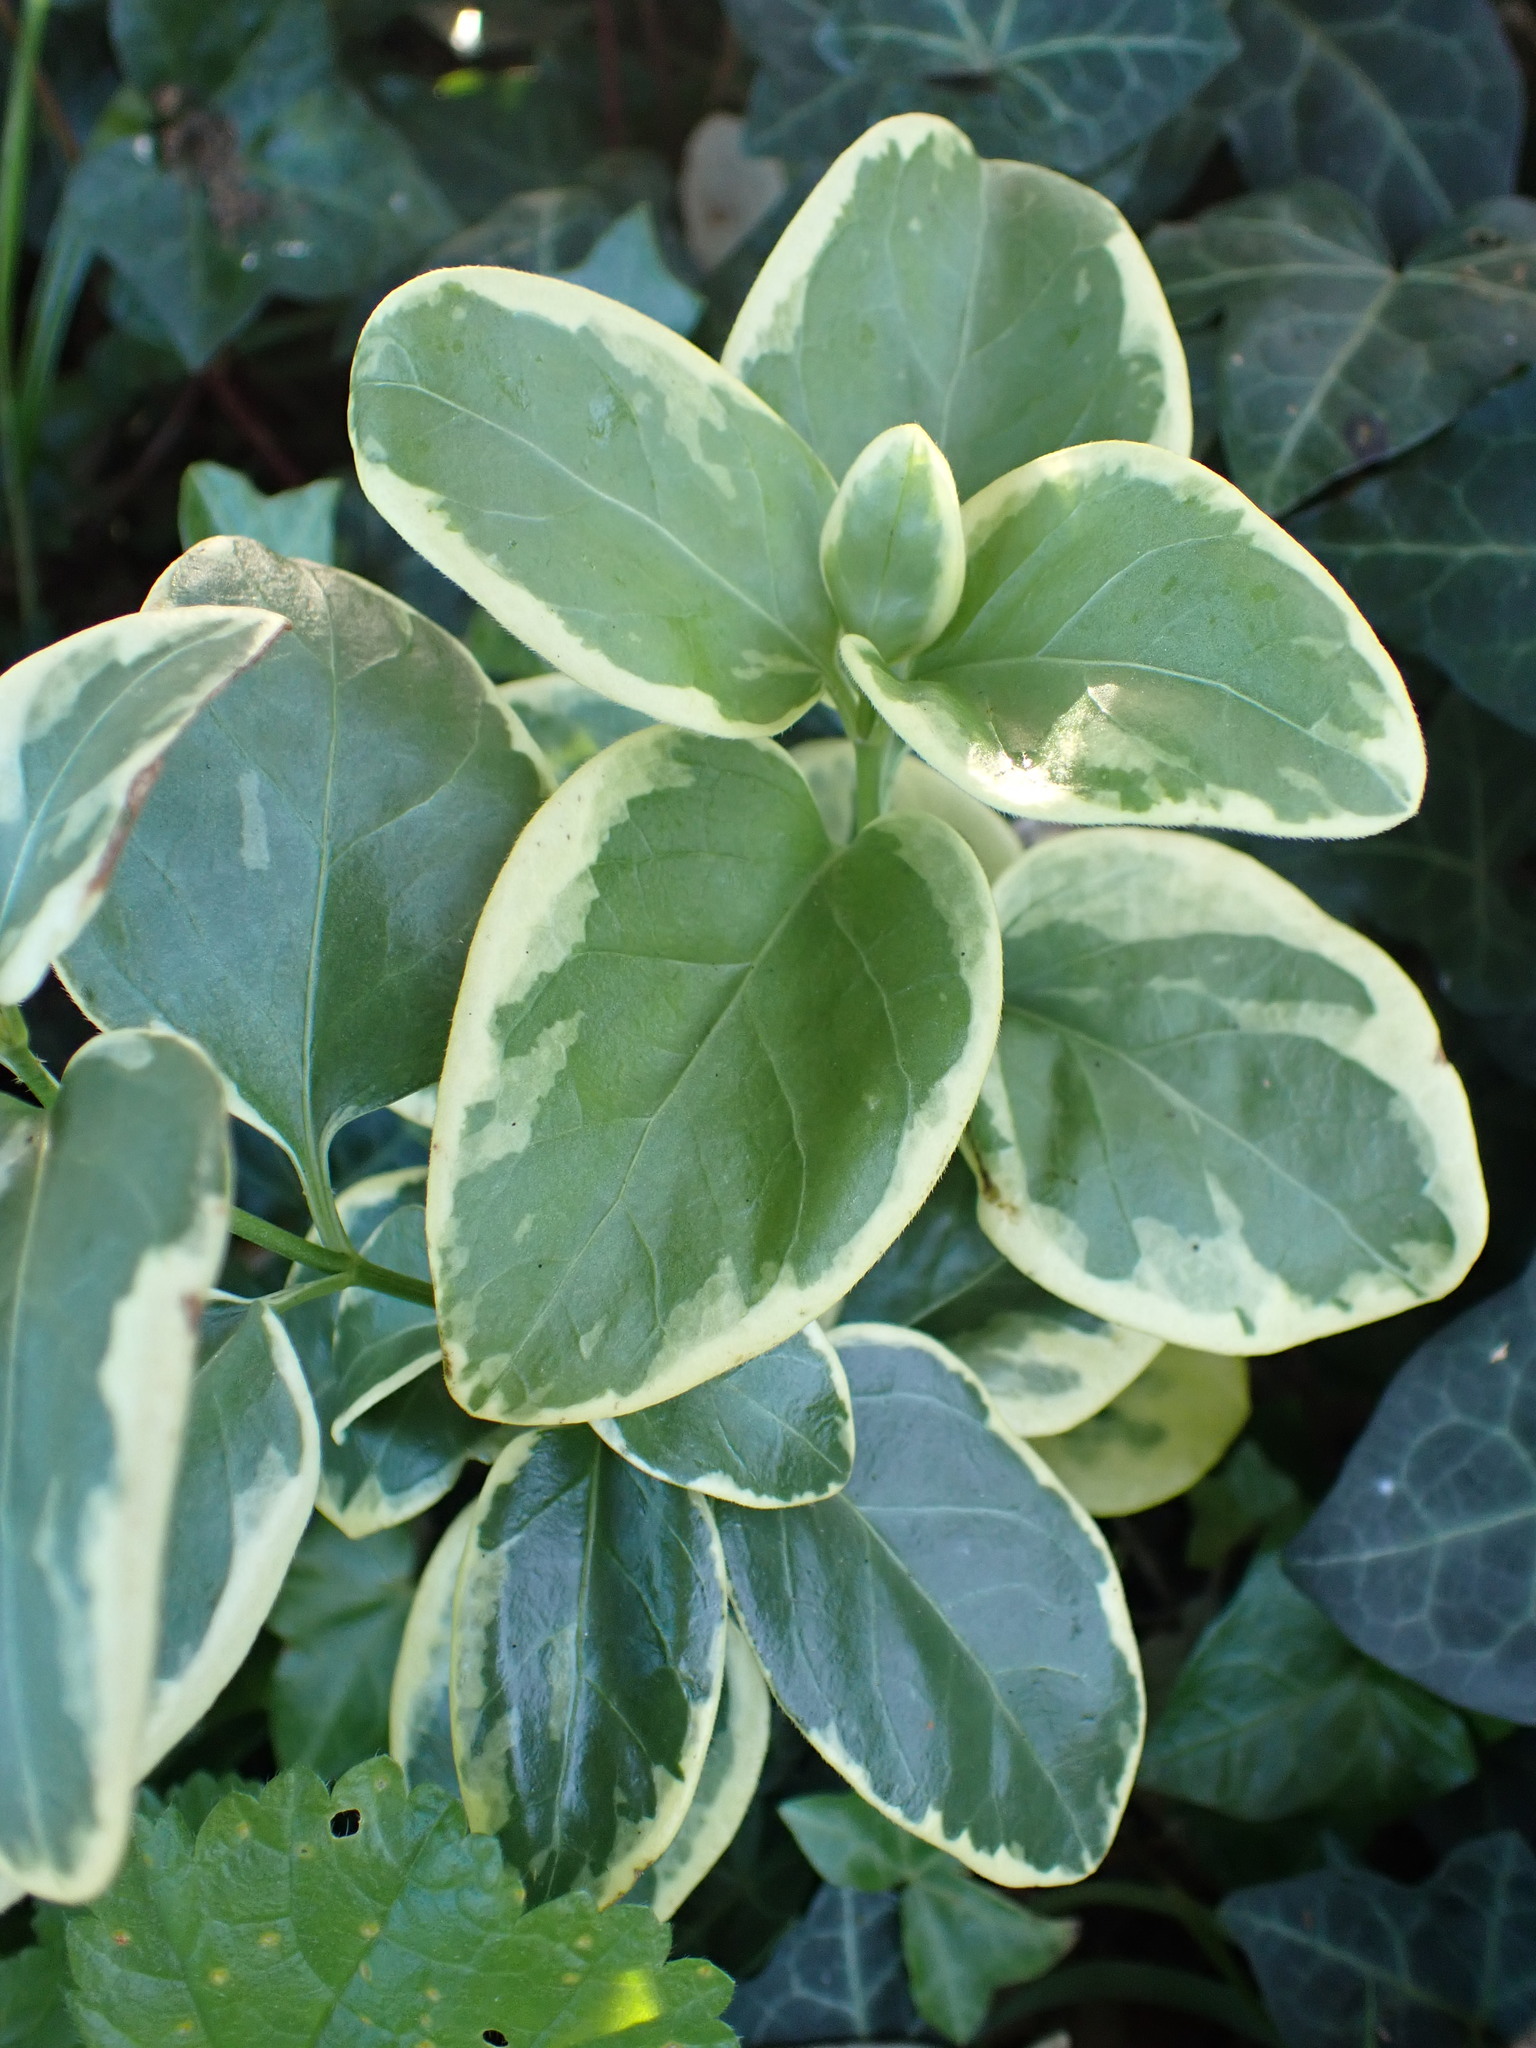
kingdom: Plantae
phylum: Tracheophyta
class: Magnoliopsida
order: Gentianales
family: Apocynaceae
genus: Vinca
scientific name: Vinca major
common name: Greater periwinkle
